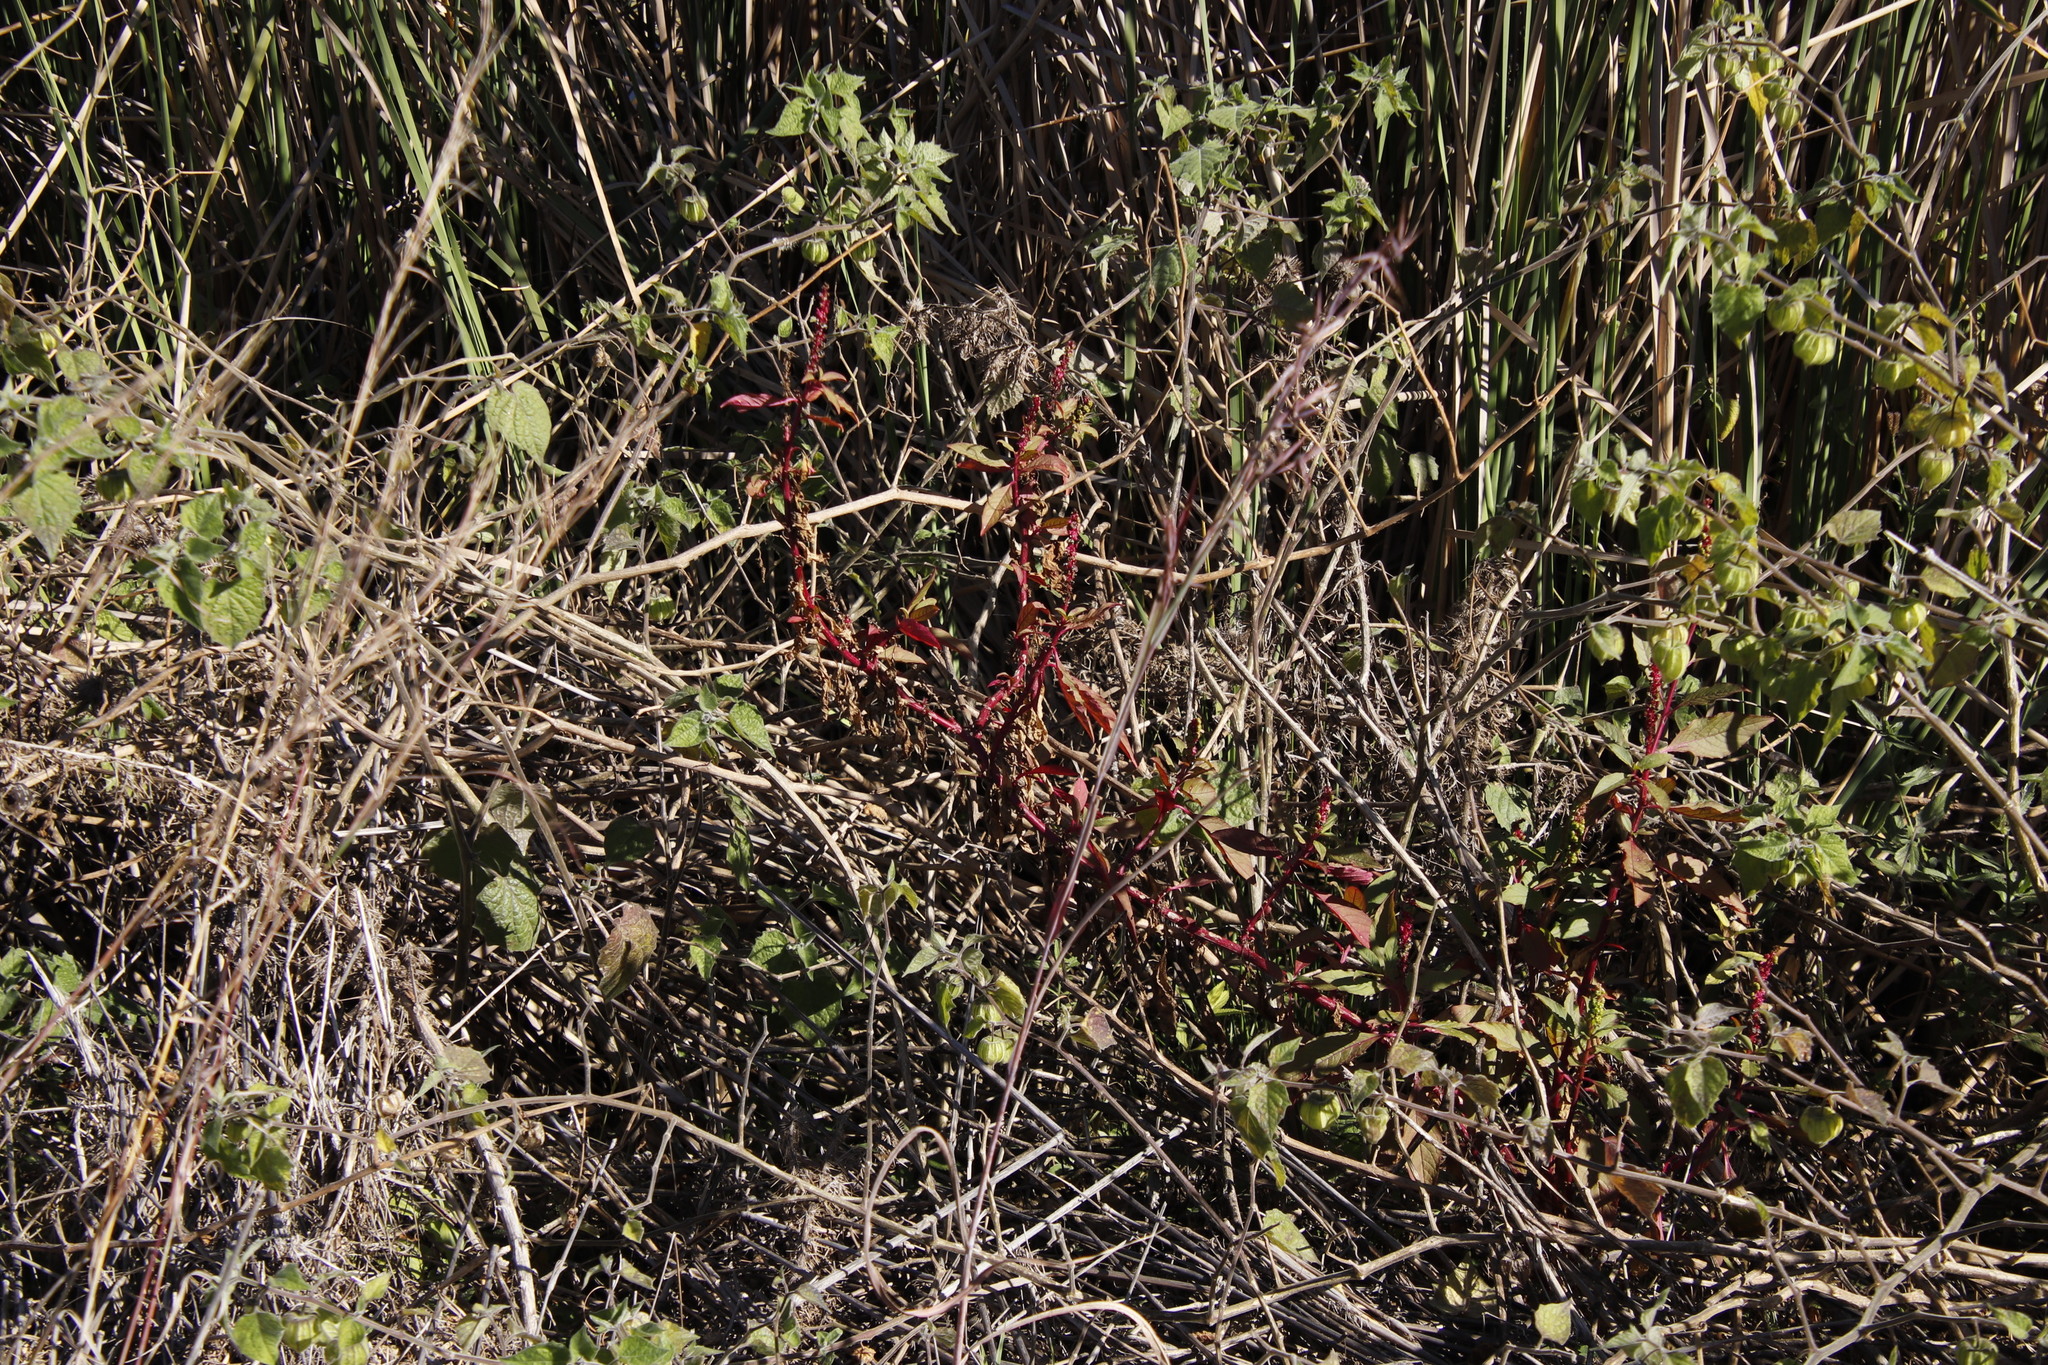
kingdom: Plantae
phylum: Tracheophyta
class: Magnoliopsida
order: Caryophyllales
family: Phytolaccaceae
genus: Phytolacca
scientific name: Phytolacca icosandra
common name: Button pokeweed
